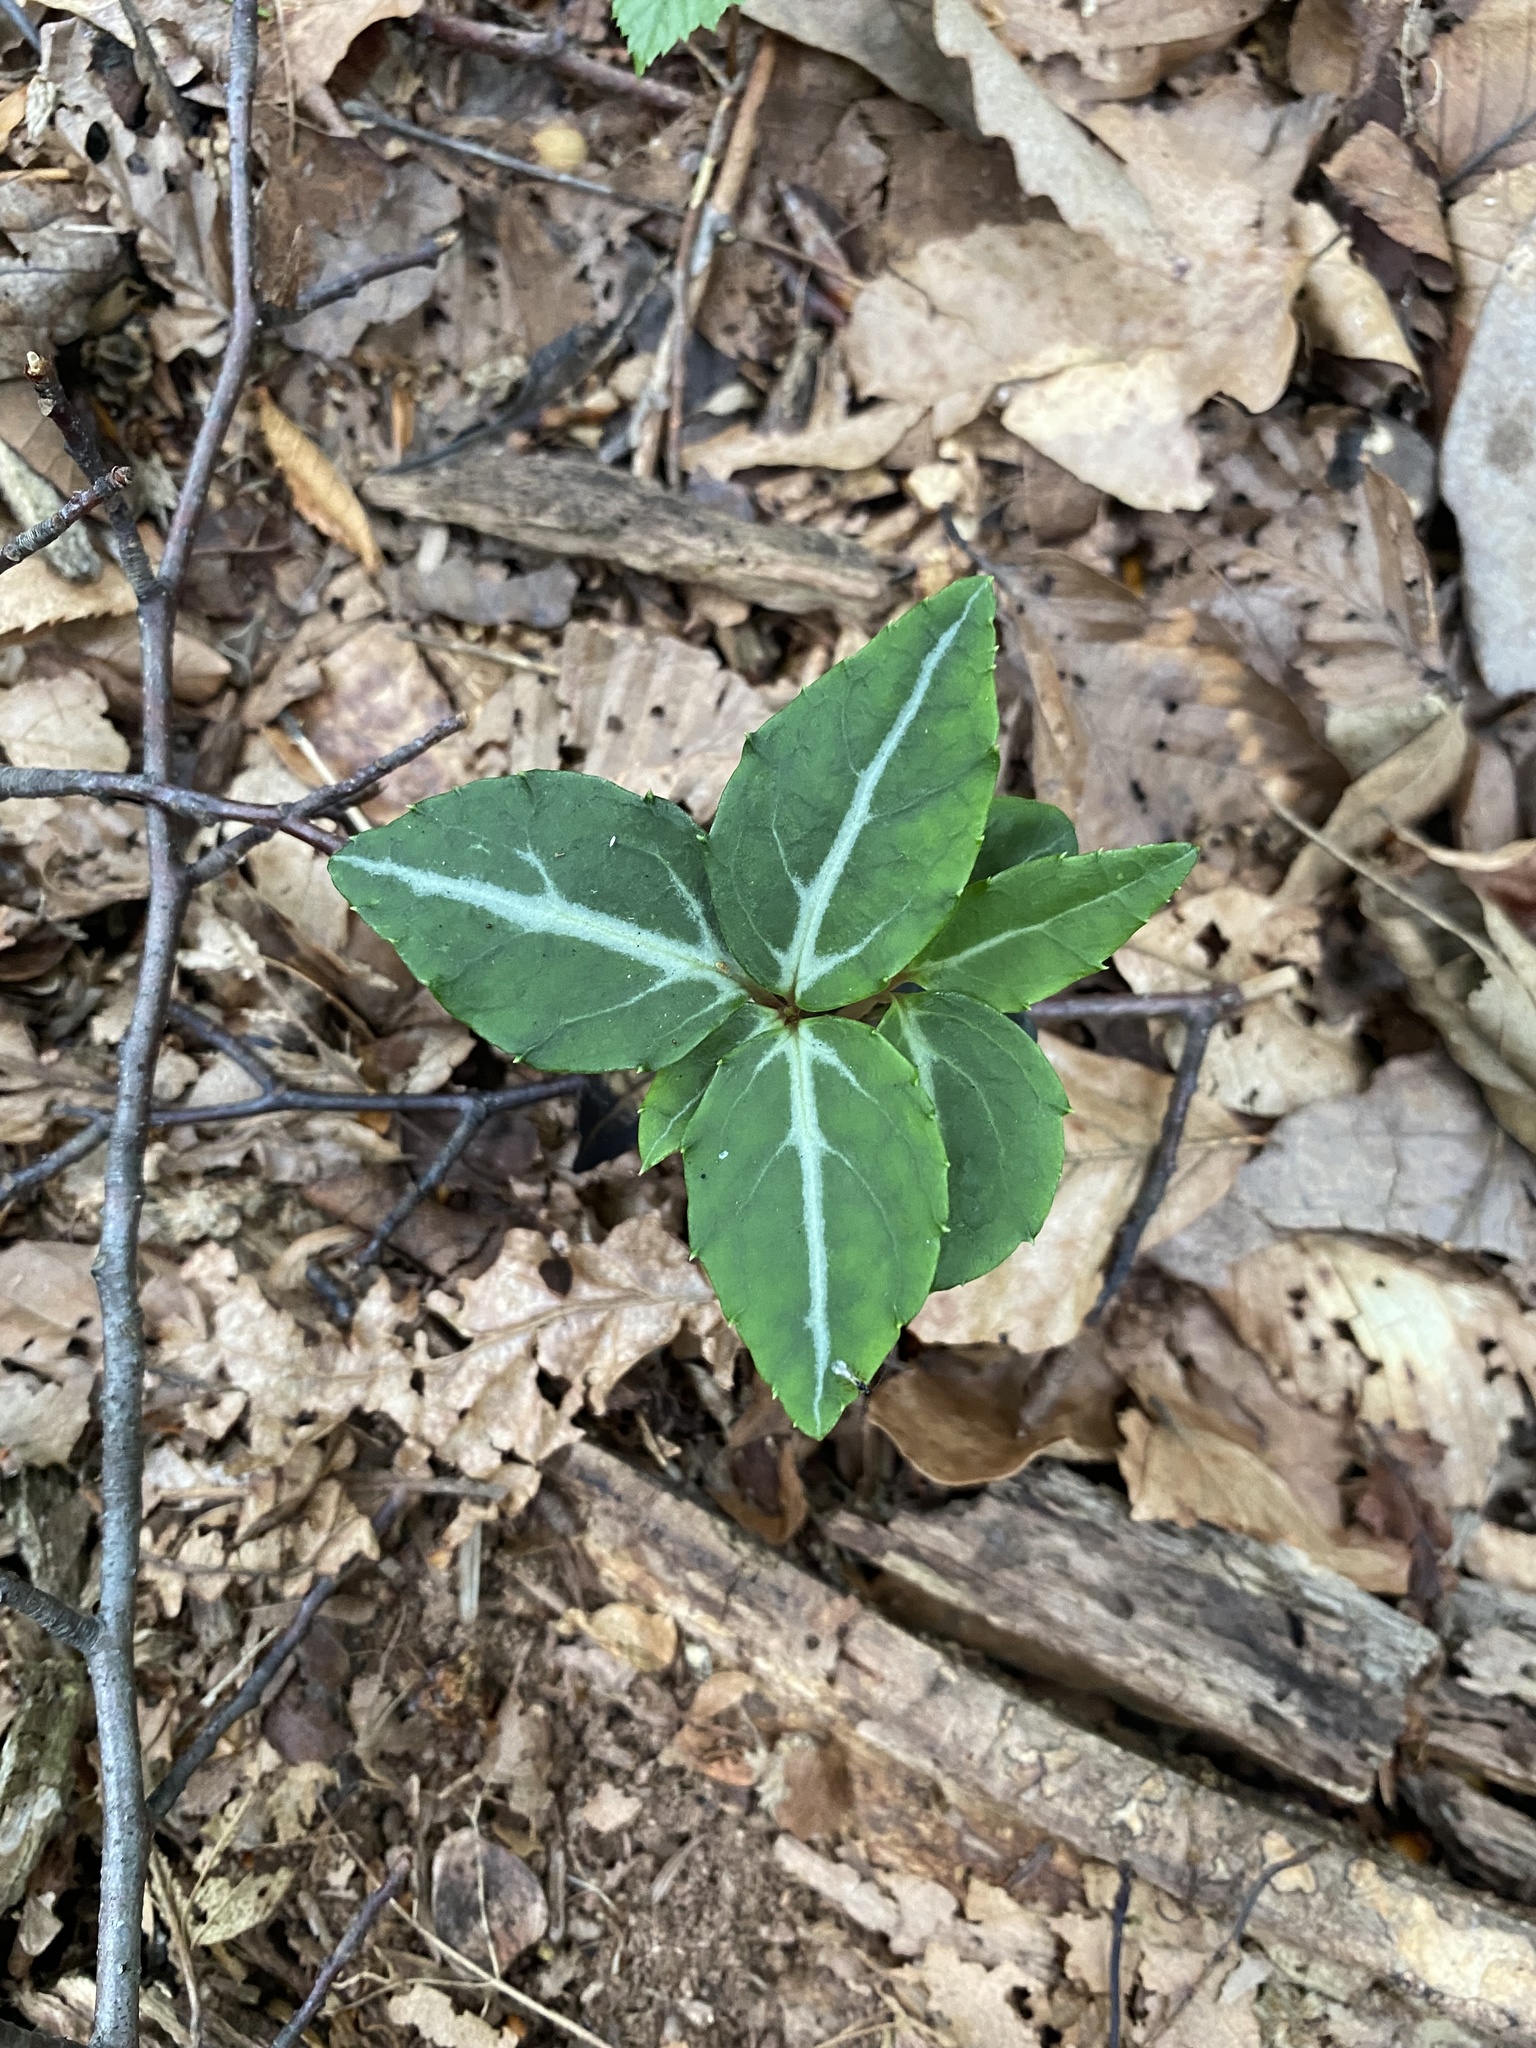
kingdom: Plantae
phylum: Tracheophyta
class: Magnoliopsida
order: Ericales
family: Ericaceae
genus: Chimaphila
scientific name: Chimaphila maculata
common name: Spotted pipsissewa
